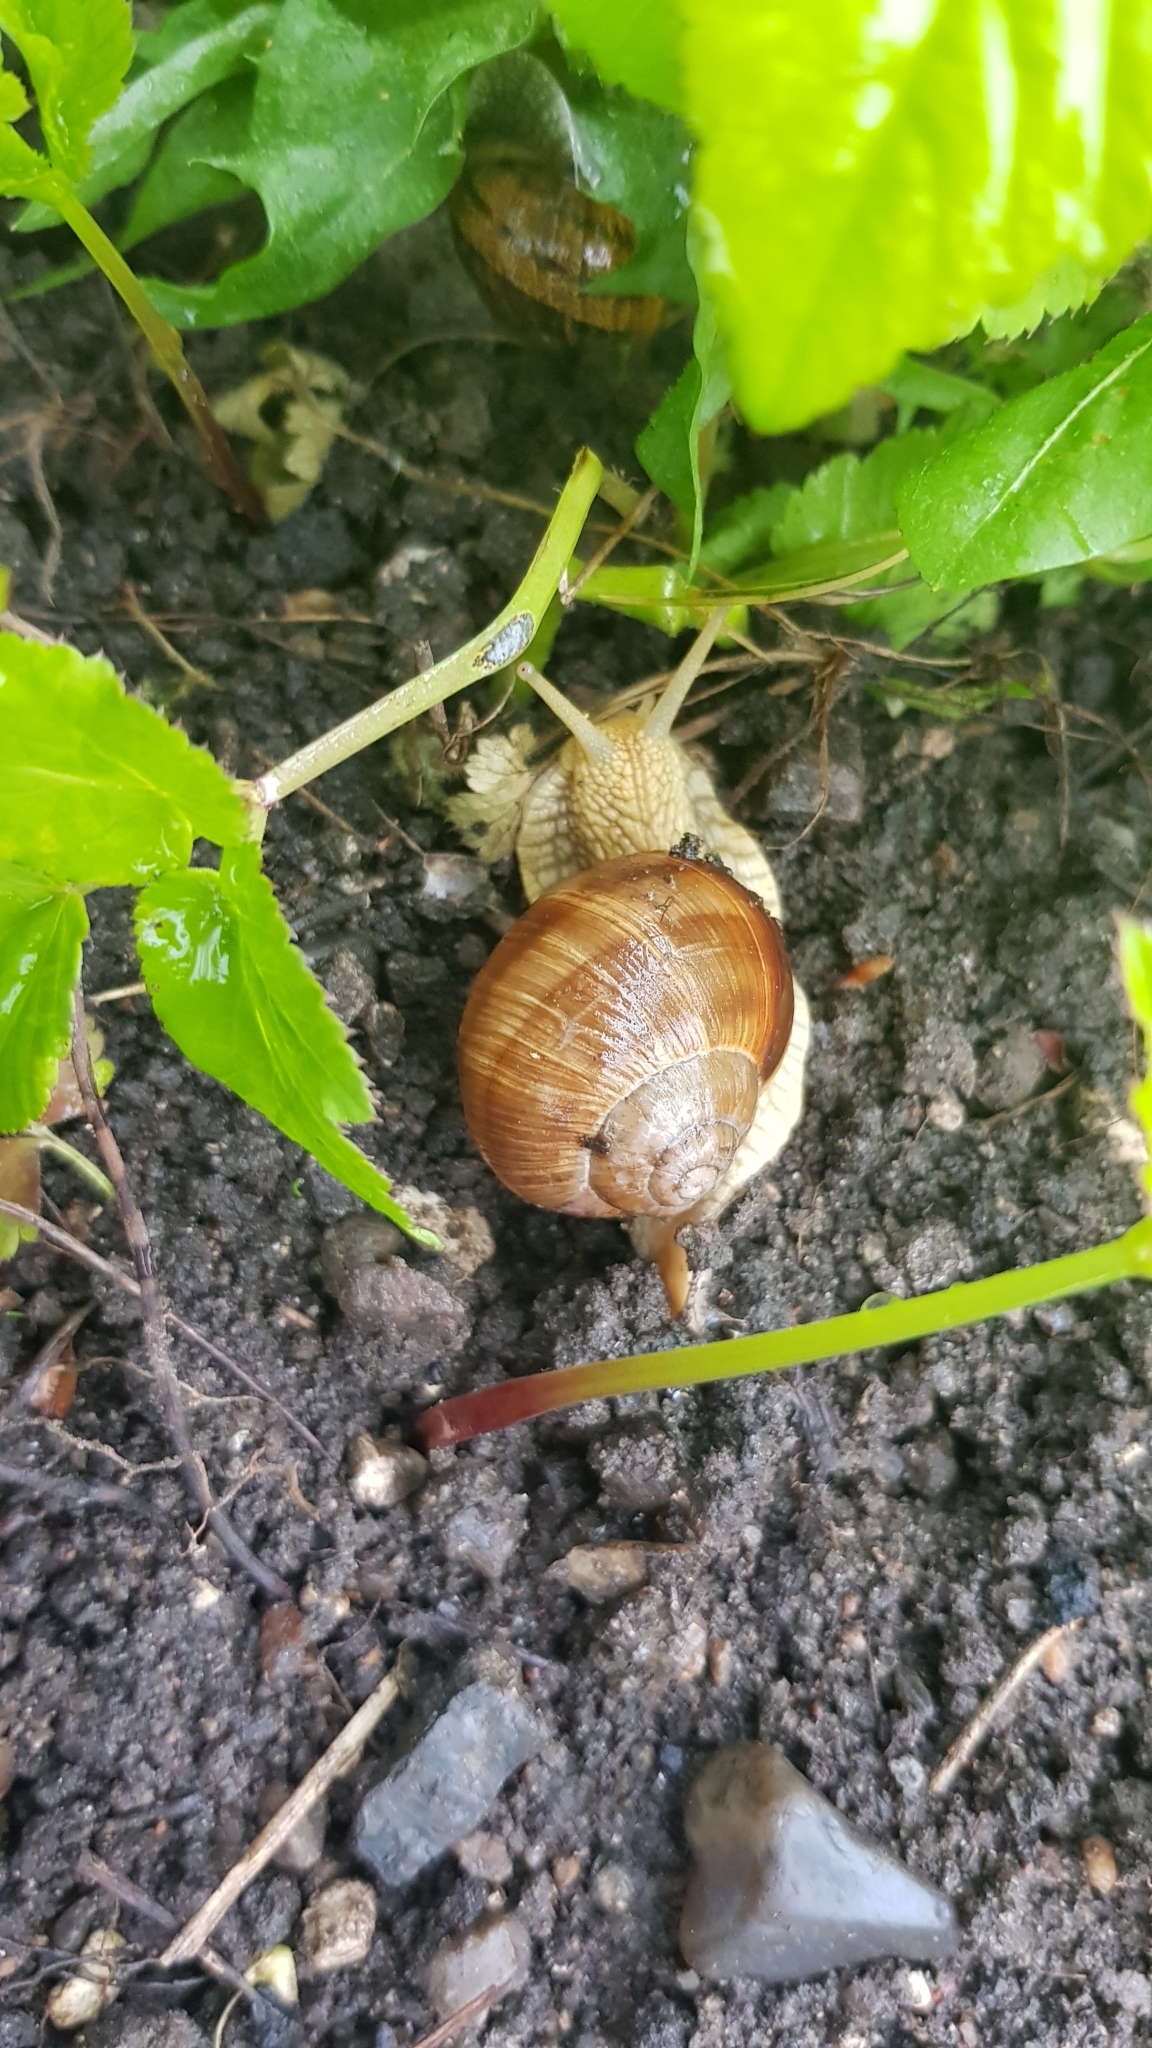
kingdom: Animalia
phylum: Mollusca
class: Gastropoda
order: Stylommatophora
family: Helicidae
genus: Helix
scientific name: Helix pomatia
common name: Roman snail
